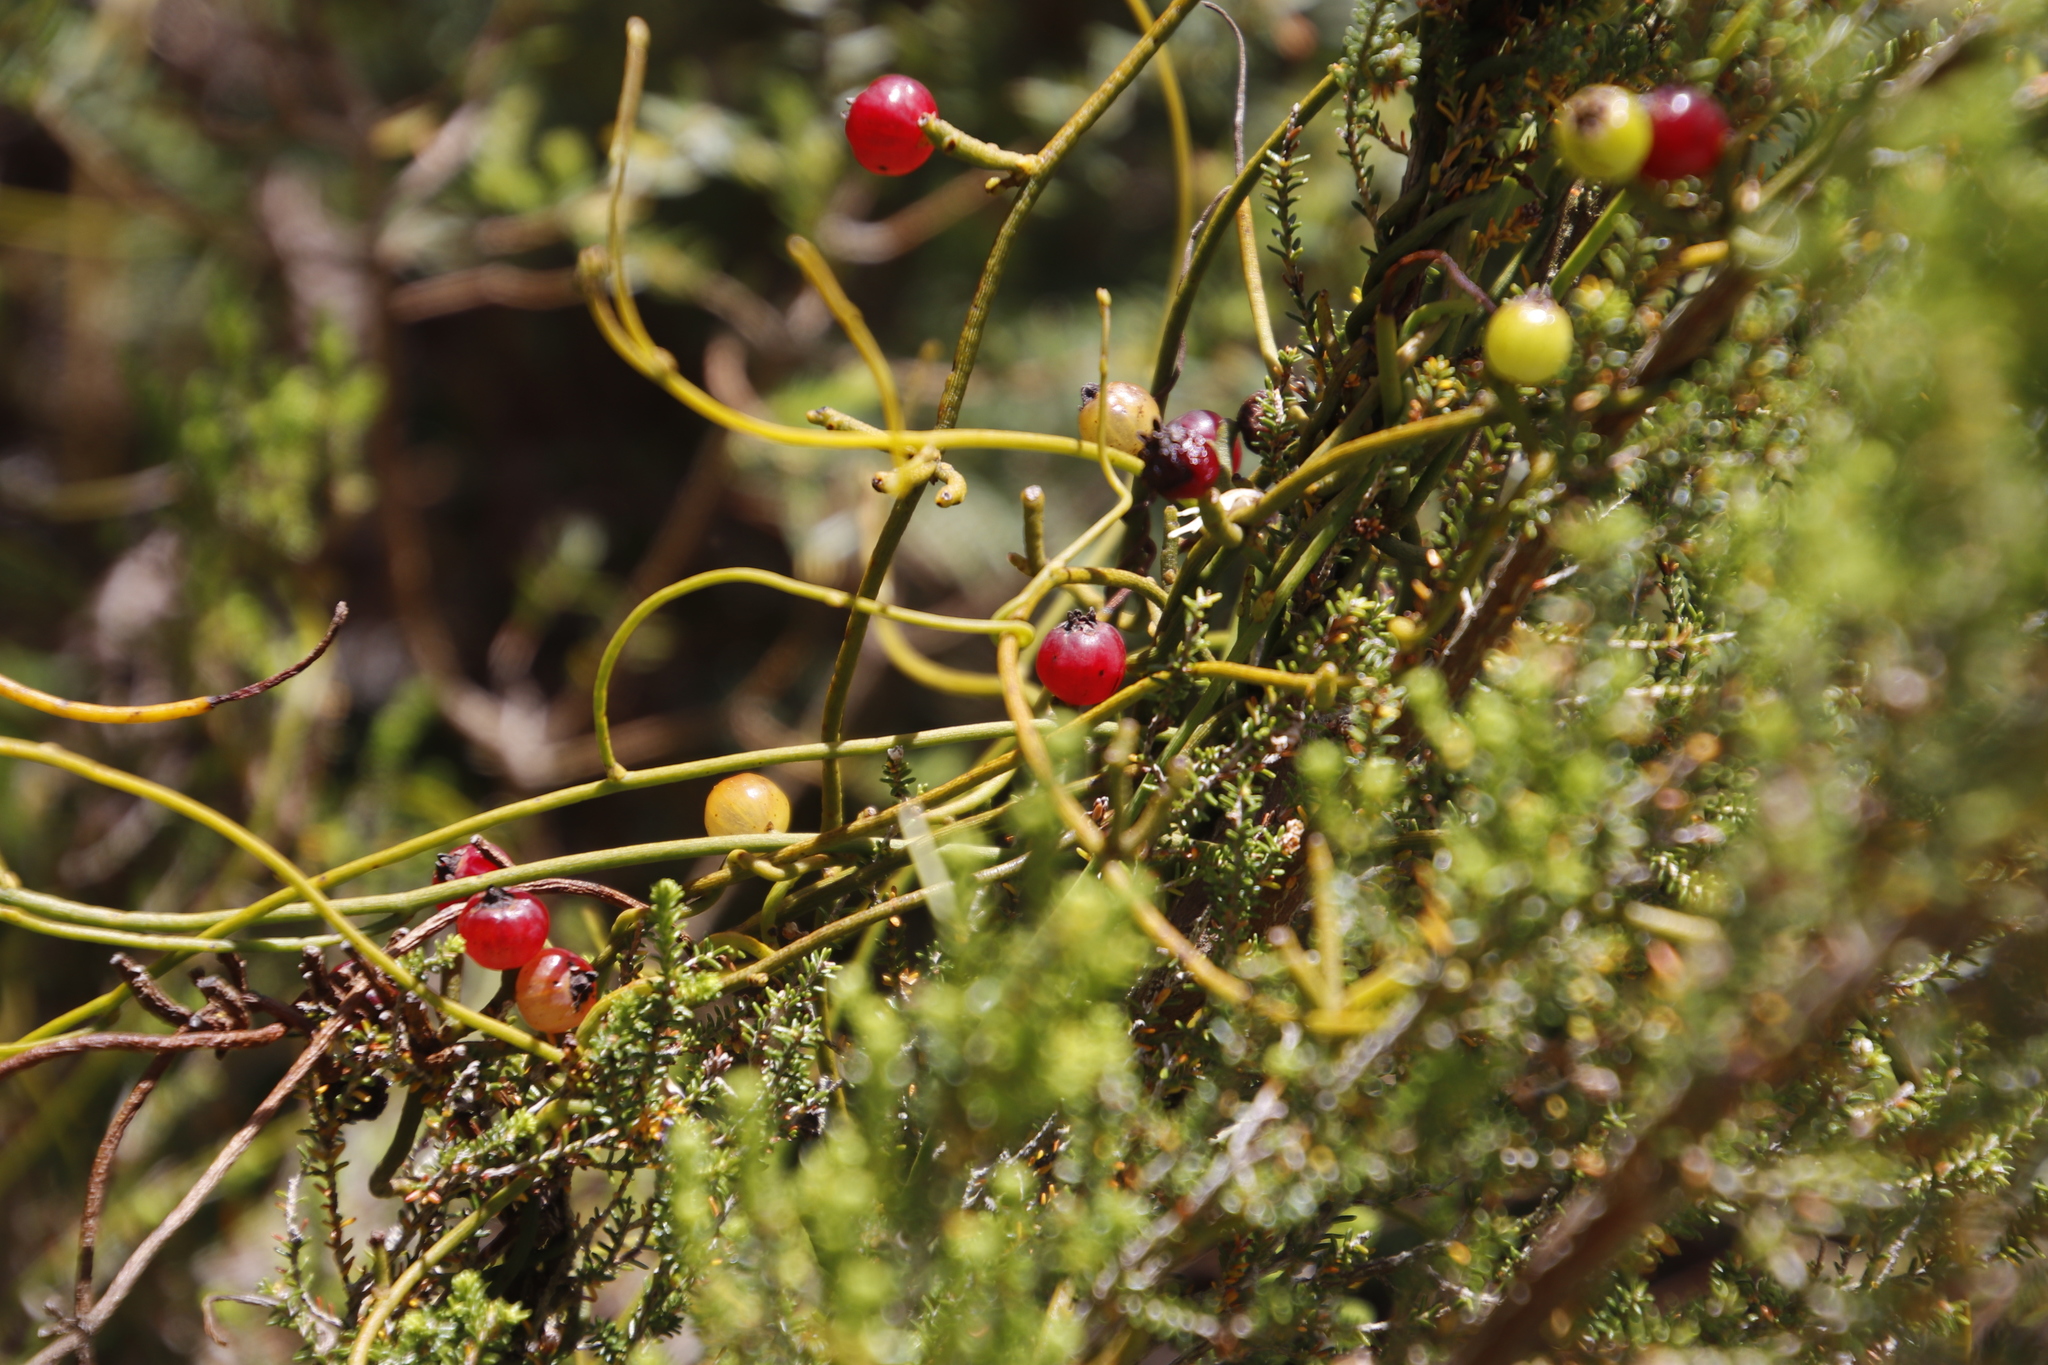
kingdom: Plantae
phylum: Tracheophyta
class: Magnoliopsida
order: Laurales
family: Lauraceae
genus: Cassytha
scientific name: Cassytha ciliolata
